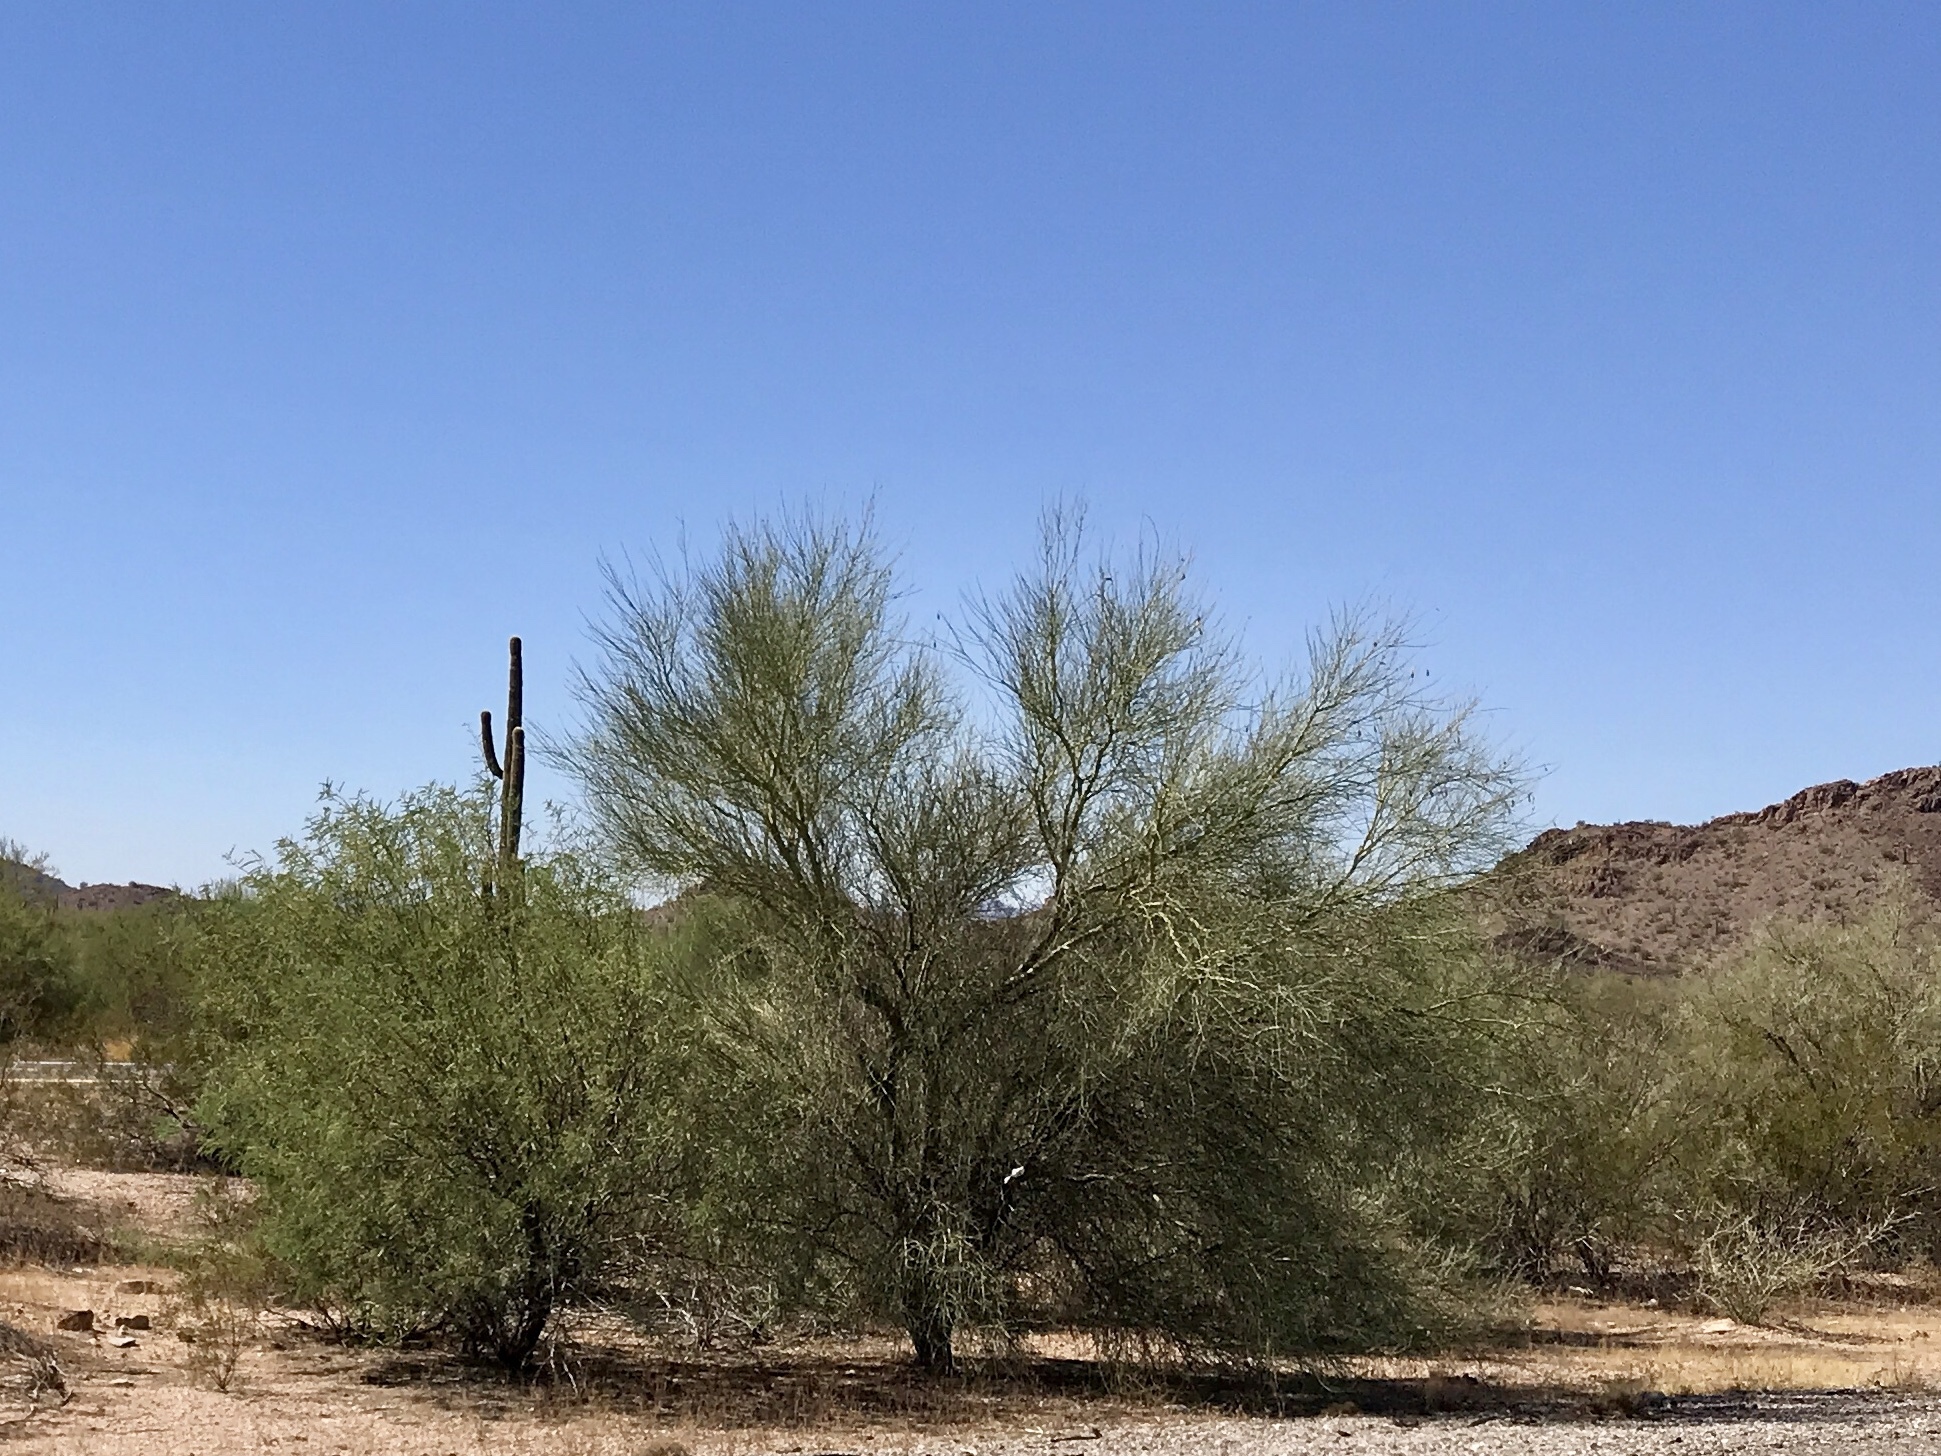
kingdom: Plantae
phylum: Tracheophyta
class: Magnoliopsida
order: Fabales
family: Fabaceae
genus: Parkinsonia
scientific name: Parkinsonia florida
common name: Blue paloverde
